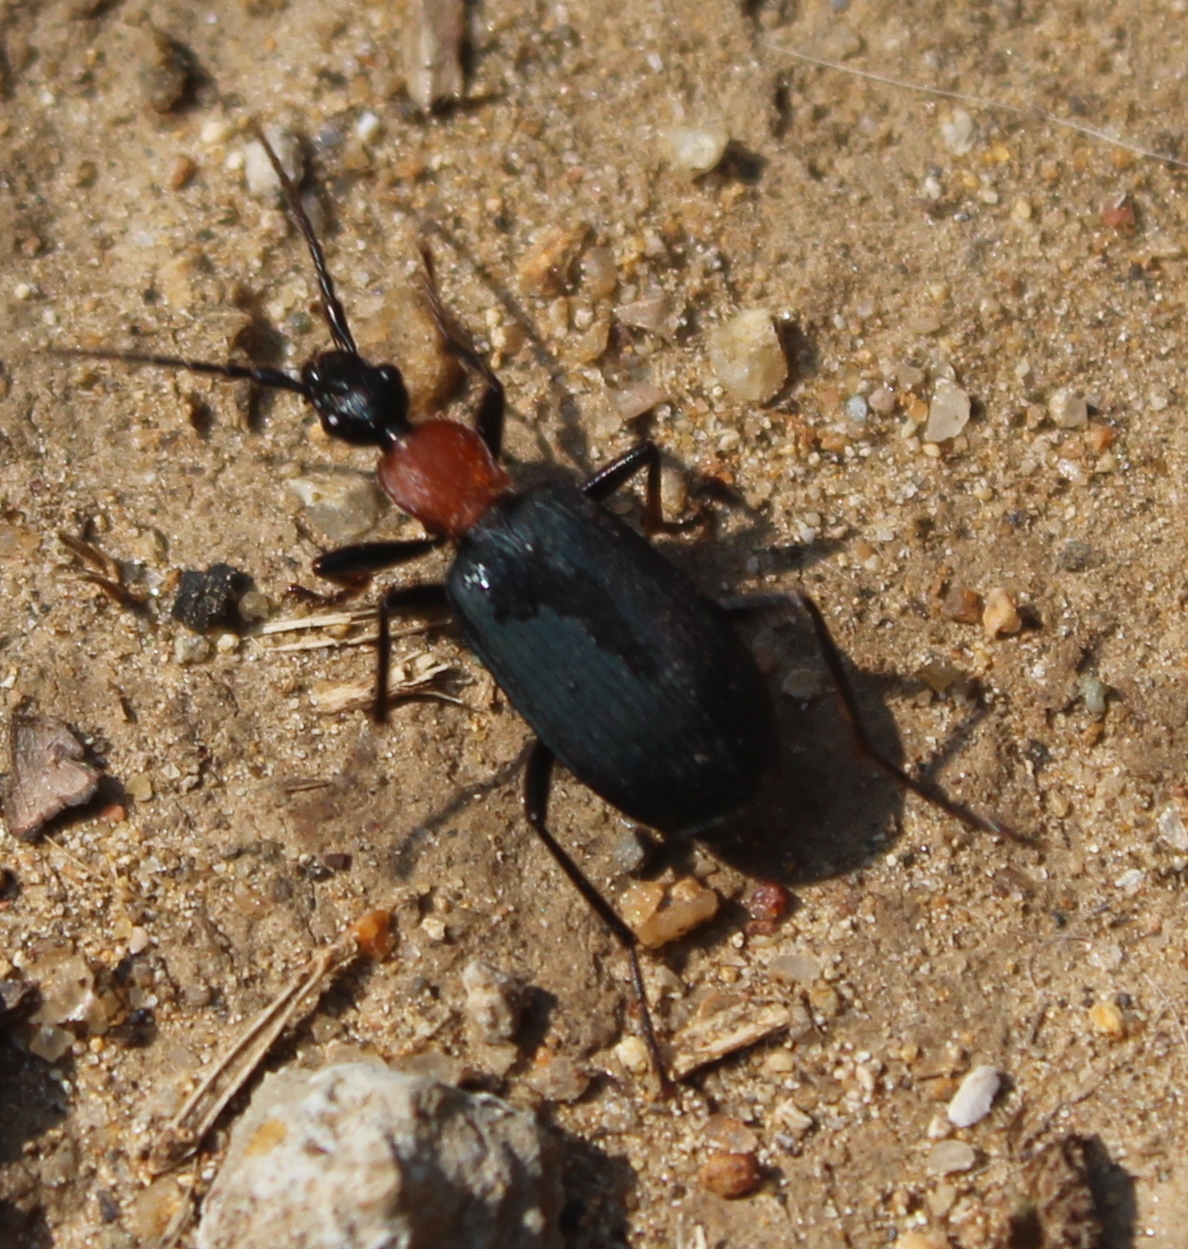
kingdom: Animalia
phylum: Arthropoda
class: Insecta
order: Coleoptera
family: Carabidae
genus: Galerita
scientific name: Galerita mexicana
